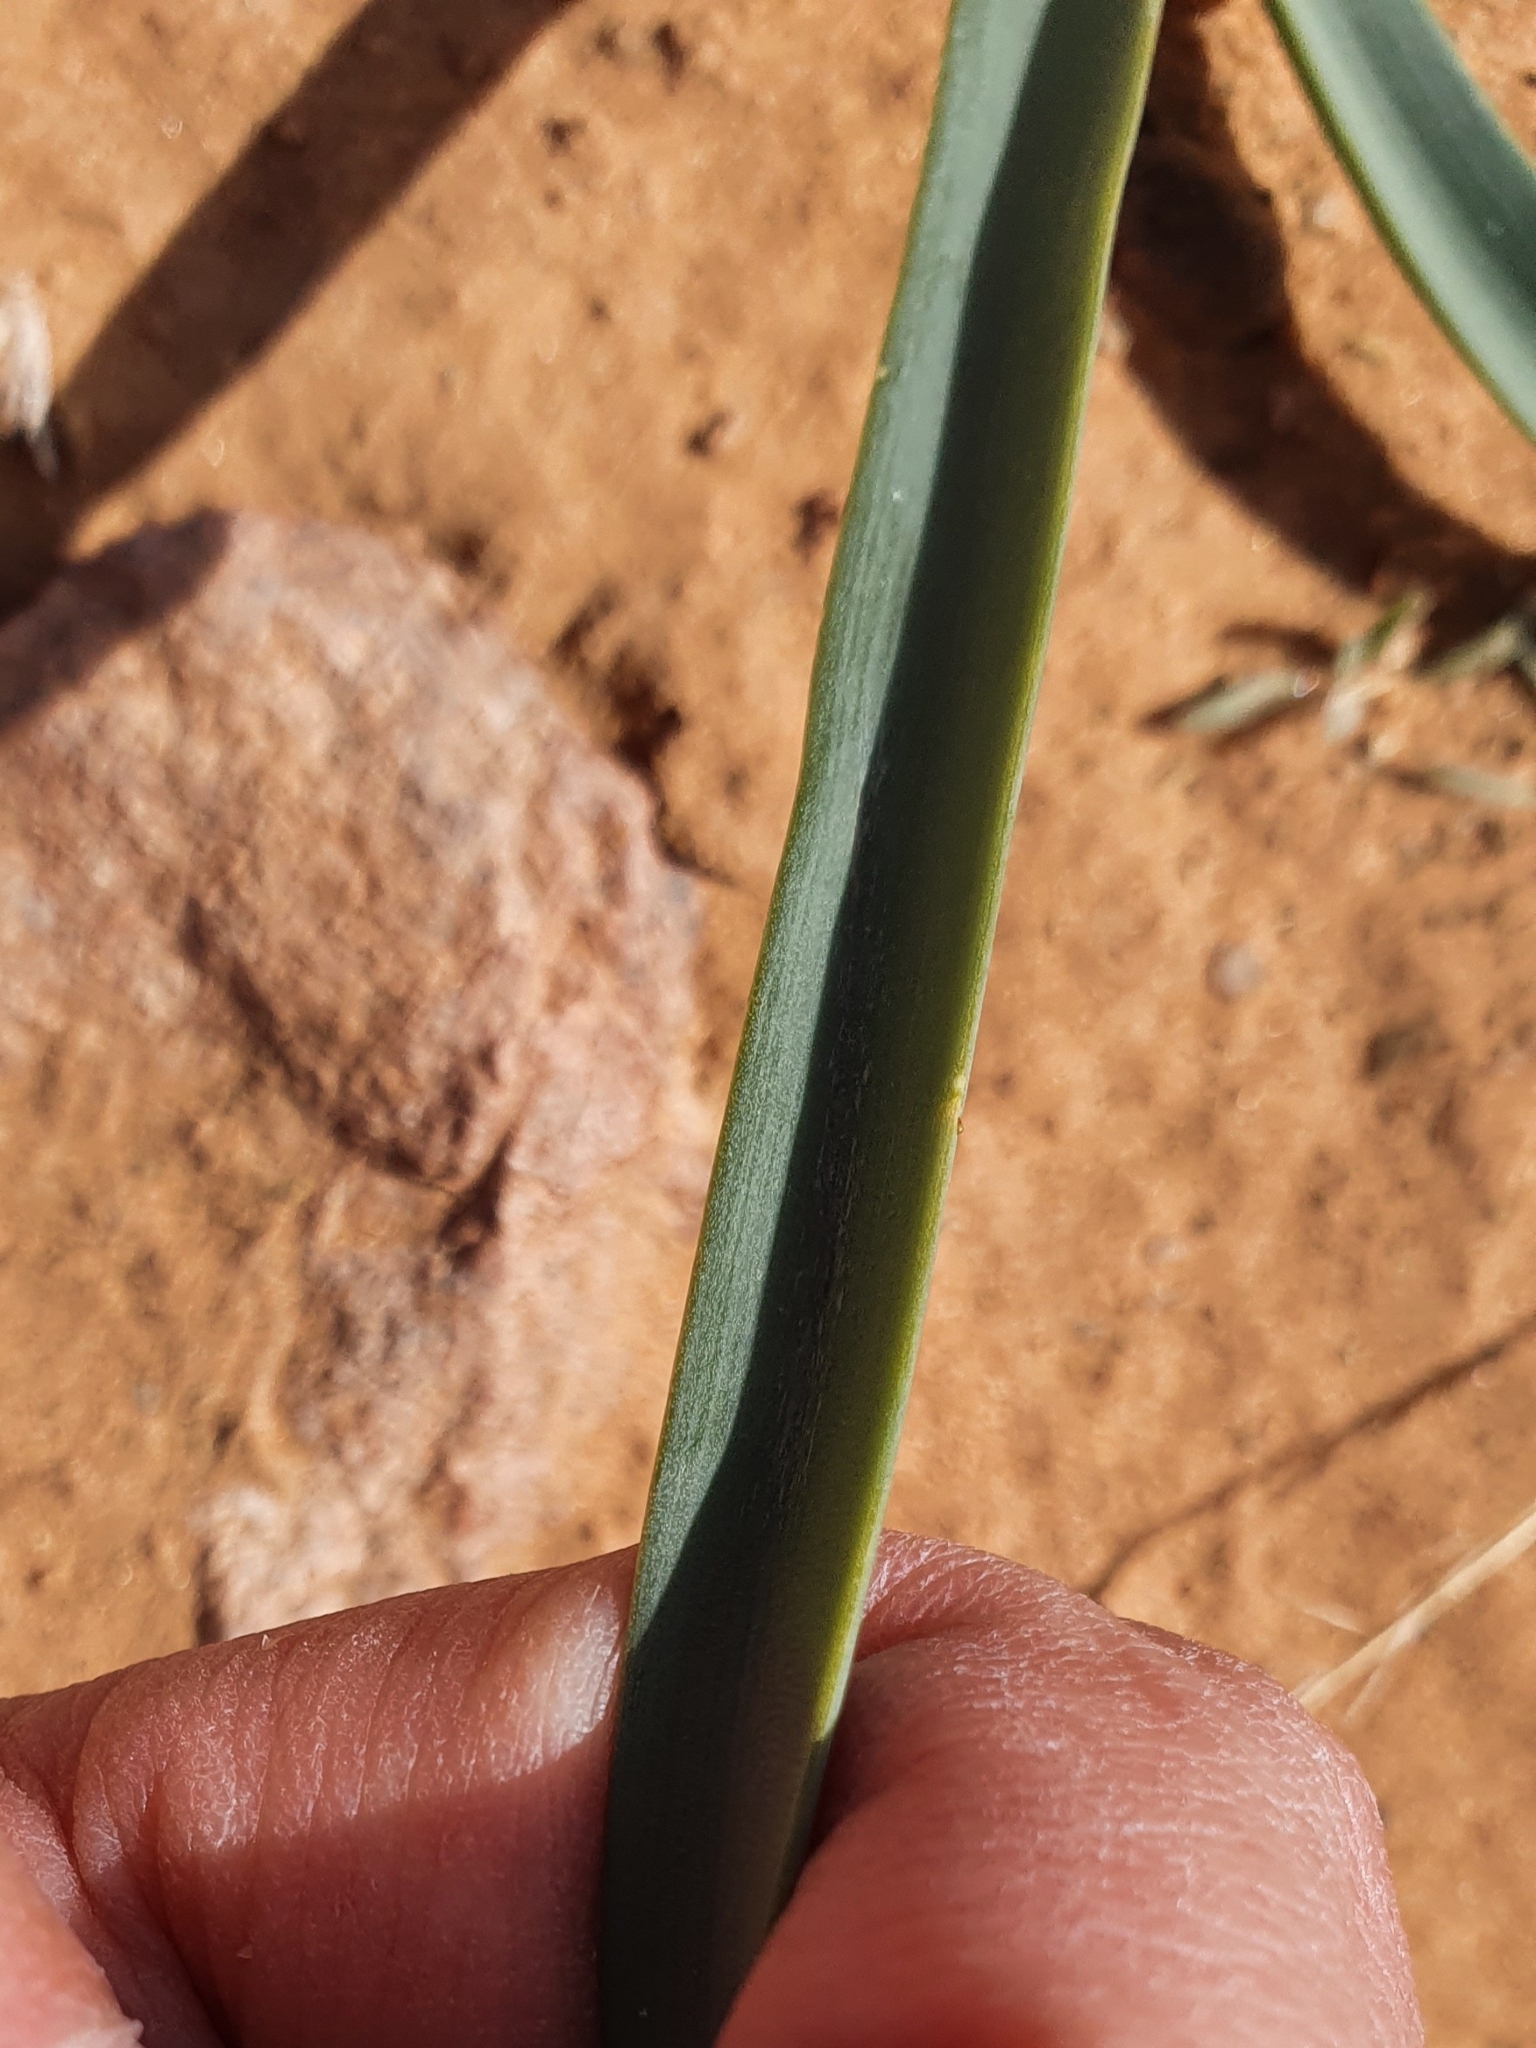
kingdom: Plantae
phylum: Tracheophyta
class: Liliopsida
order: Asparagales
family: Asparagaceae
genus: Albuca
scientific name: Albuca amoena
